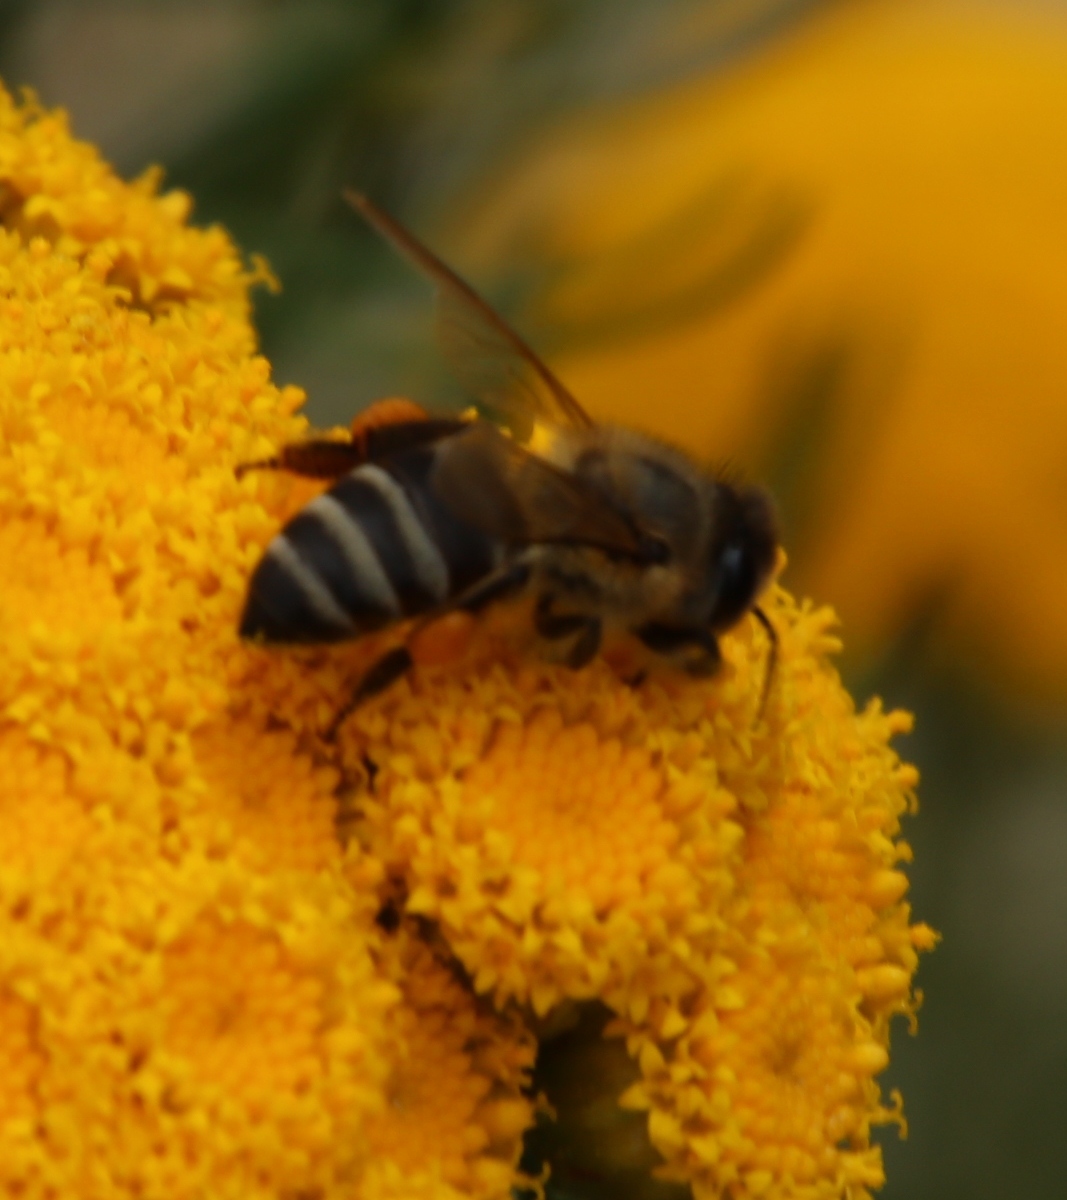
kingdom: Plantae
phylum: Tracheophyta
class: Magnoliopsida
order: Asterales
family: Asteraceae
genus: Athanasia
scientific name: Athanasia crithmifolia
